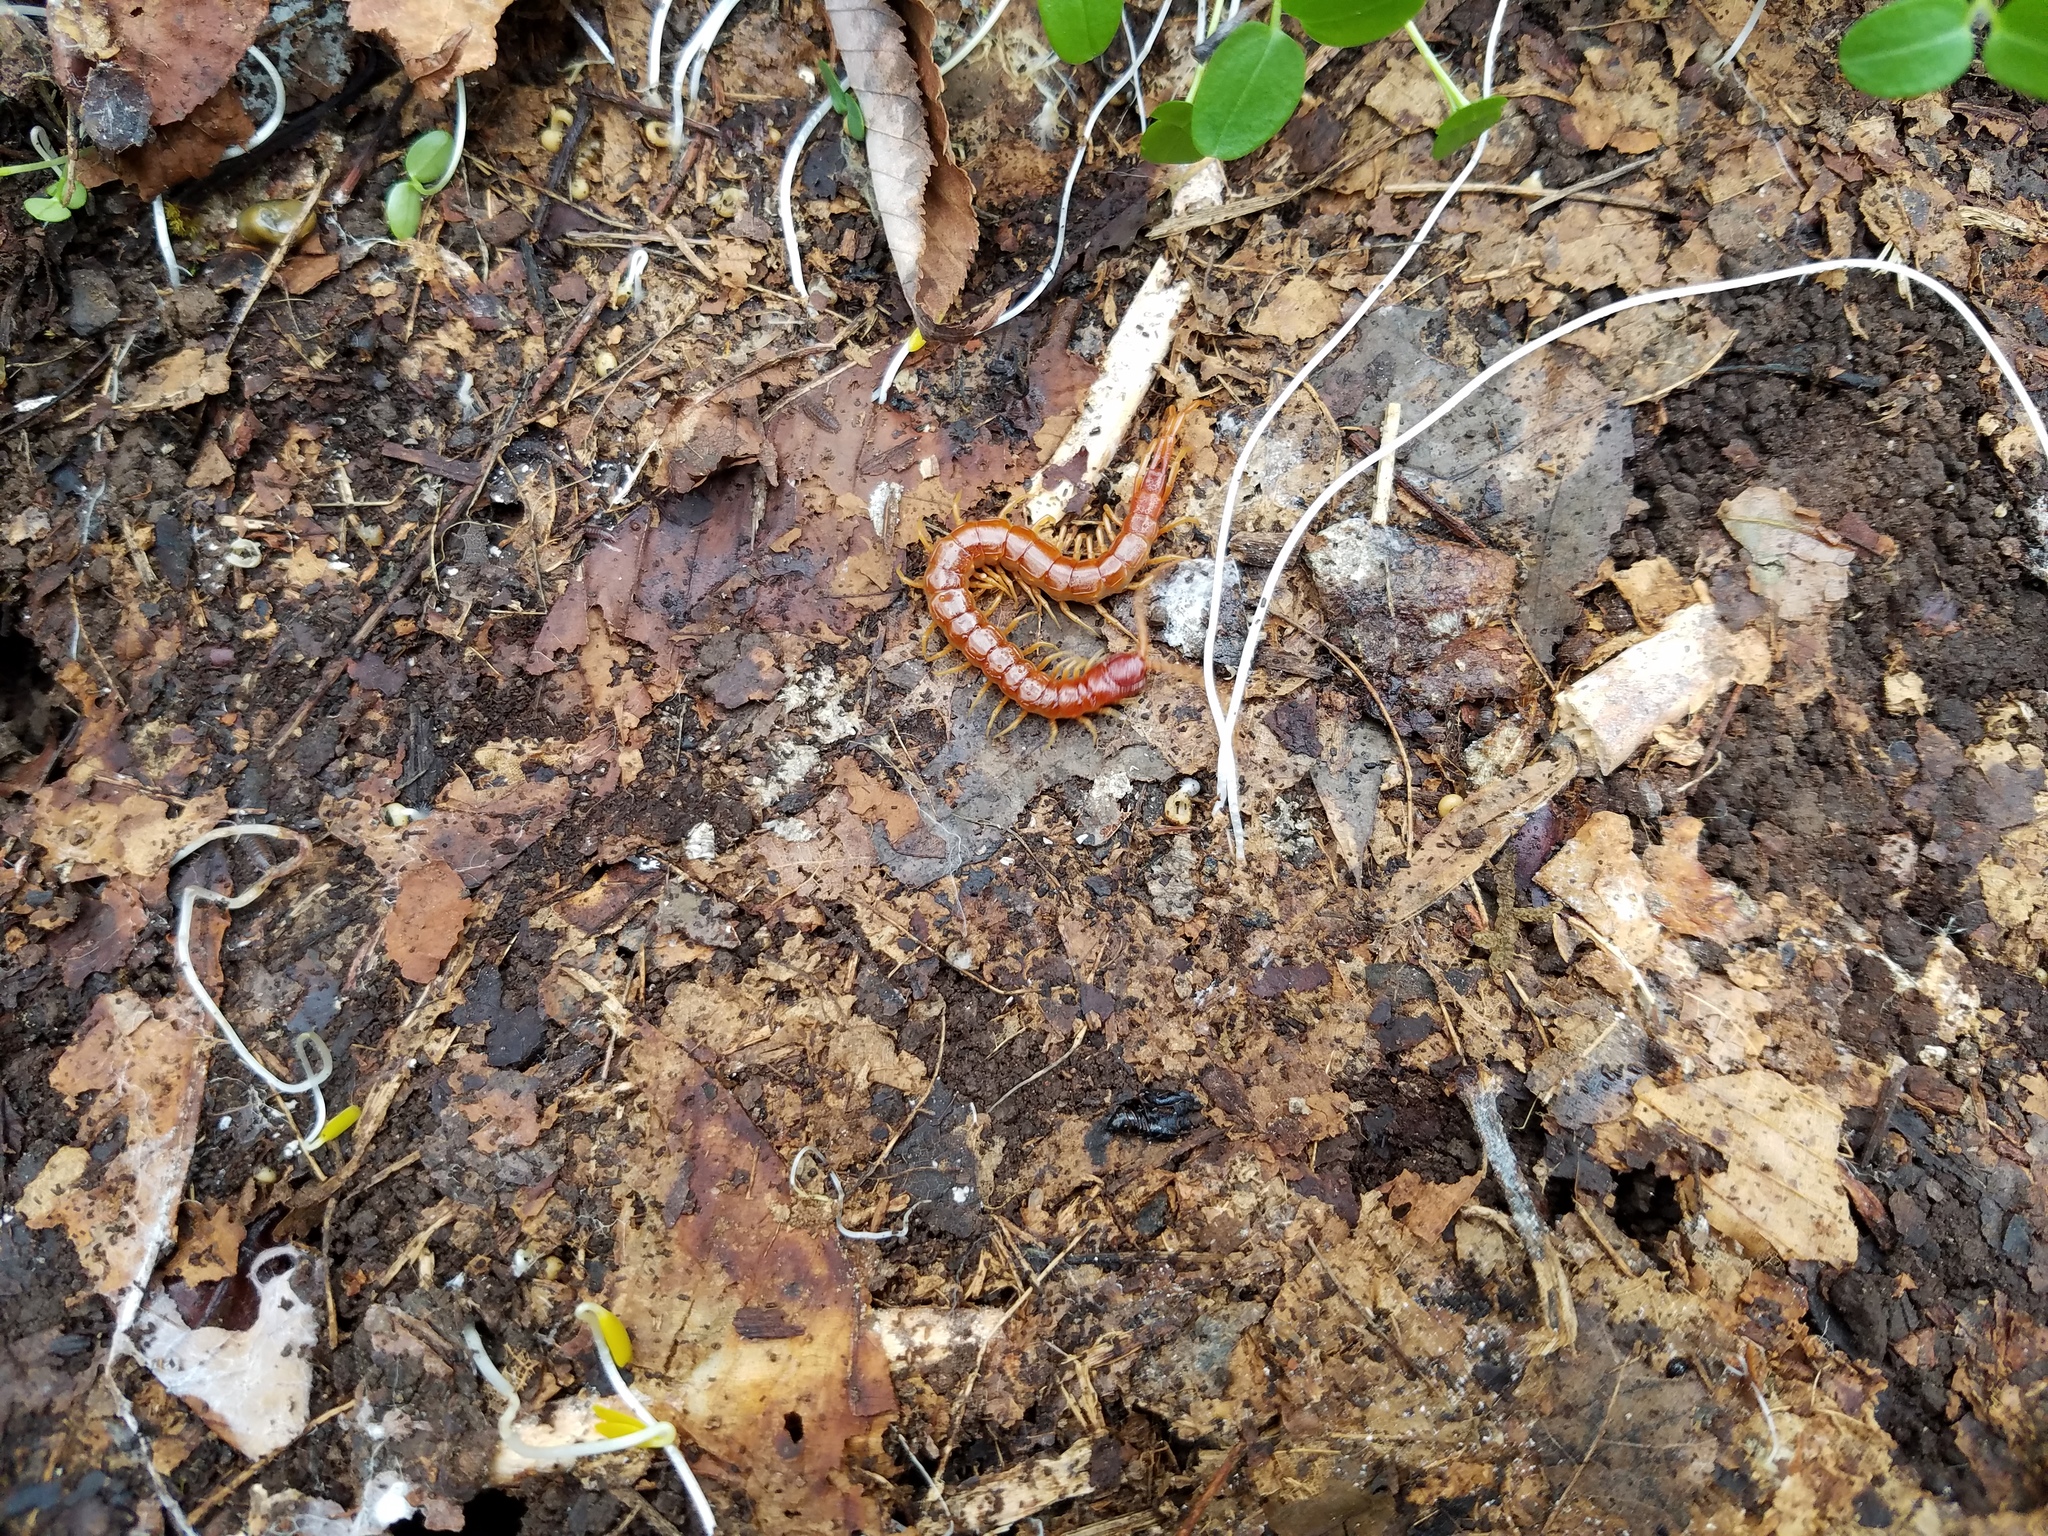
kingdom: Animalia
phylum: Arthropoda
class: Chilopoda
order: Scolopendromorpha
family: Scolopocryptopidae
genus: Scolopocryptops
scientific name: Scolopocryptops sexspinosus
